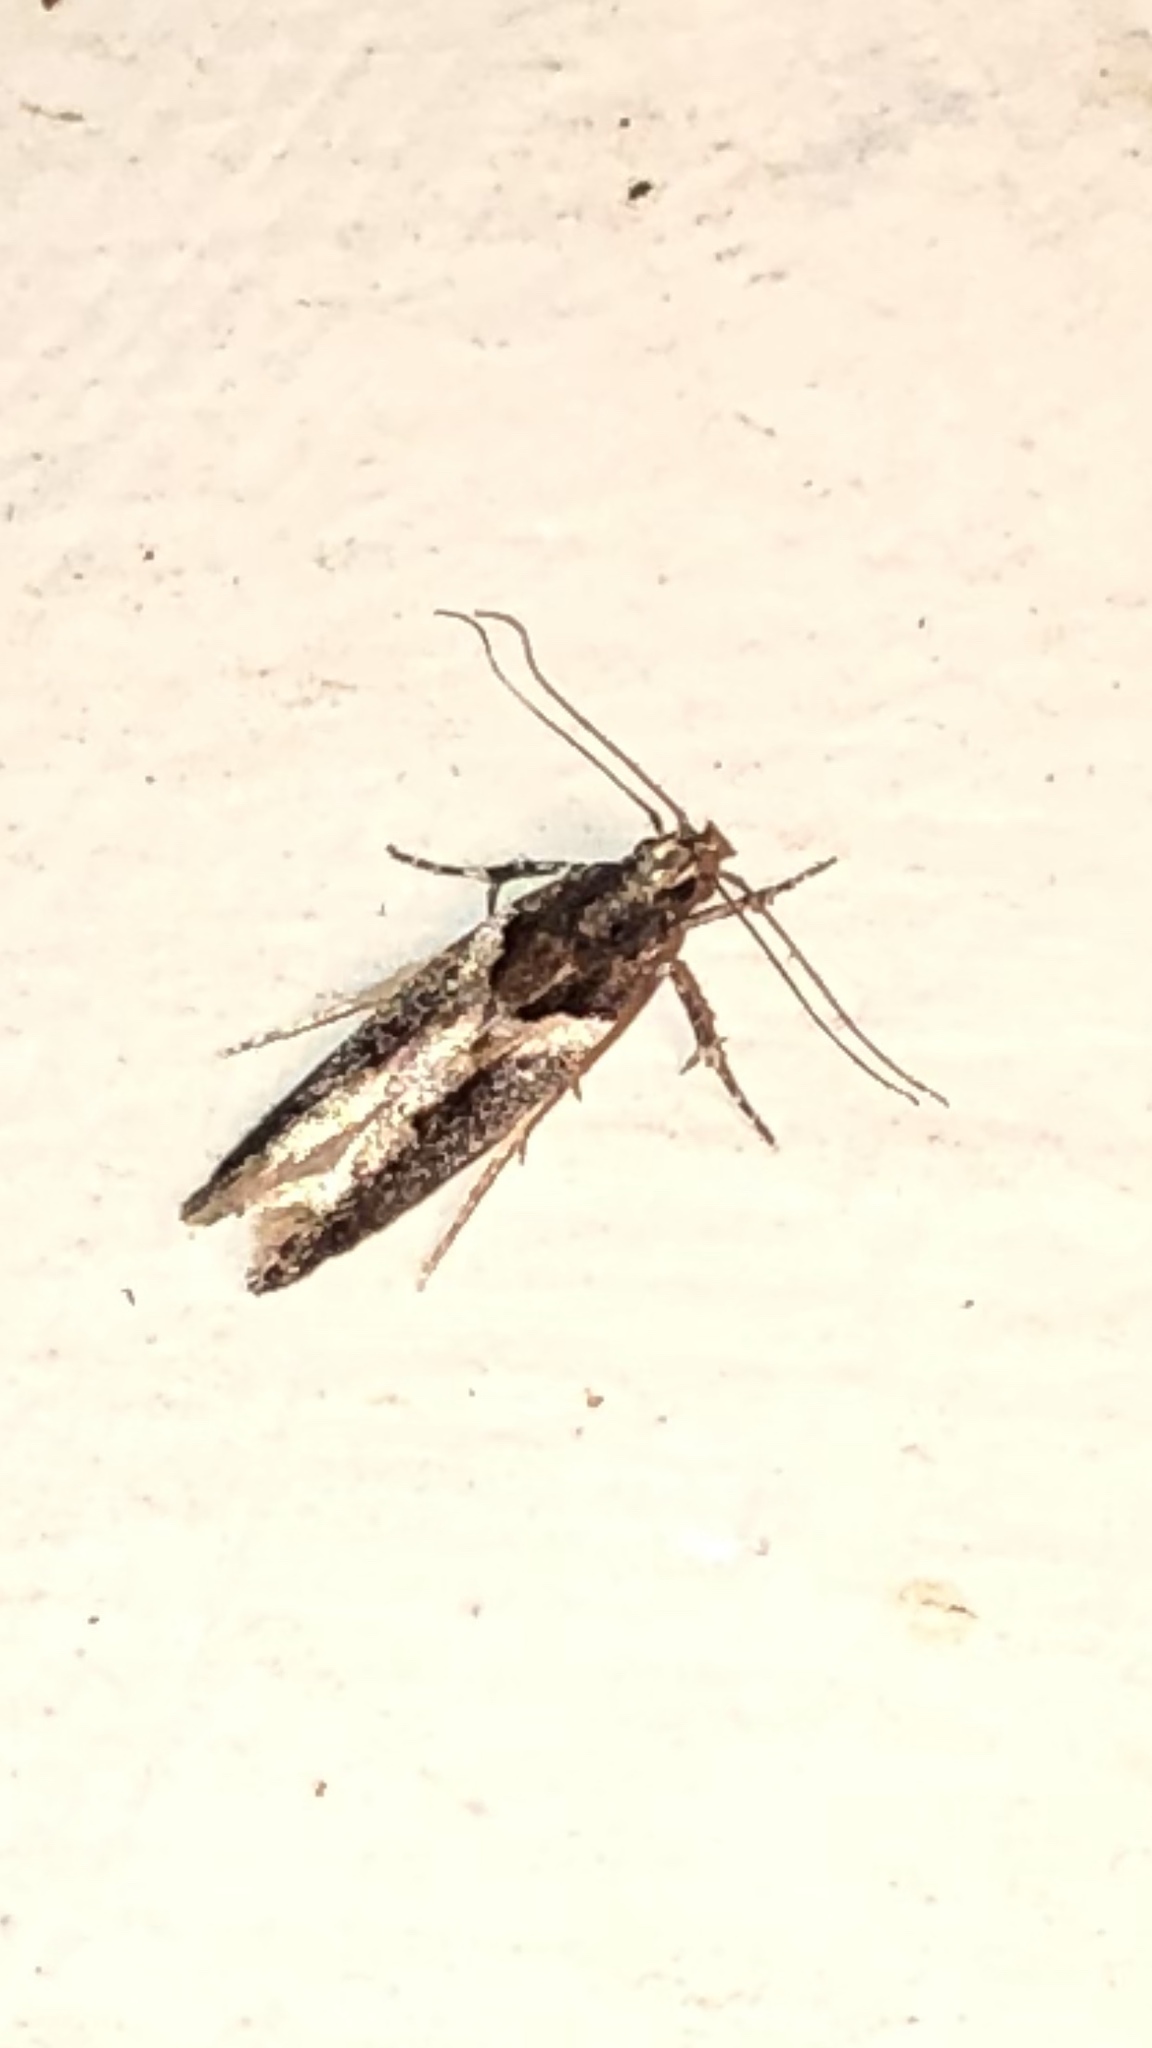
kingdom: Animalia
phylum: Arthropoda
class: Insecta
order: Lepidoptera
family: Gelechiidae
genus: Telphusa
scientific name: Telphusa longifasciella
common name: Y-backed telphusa
